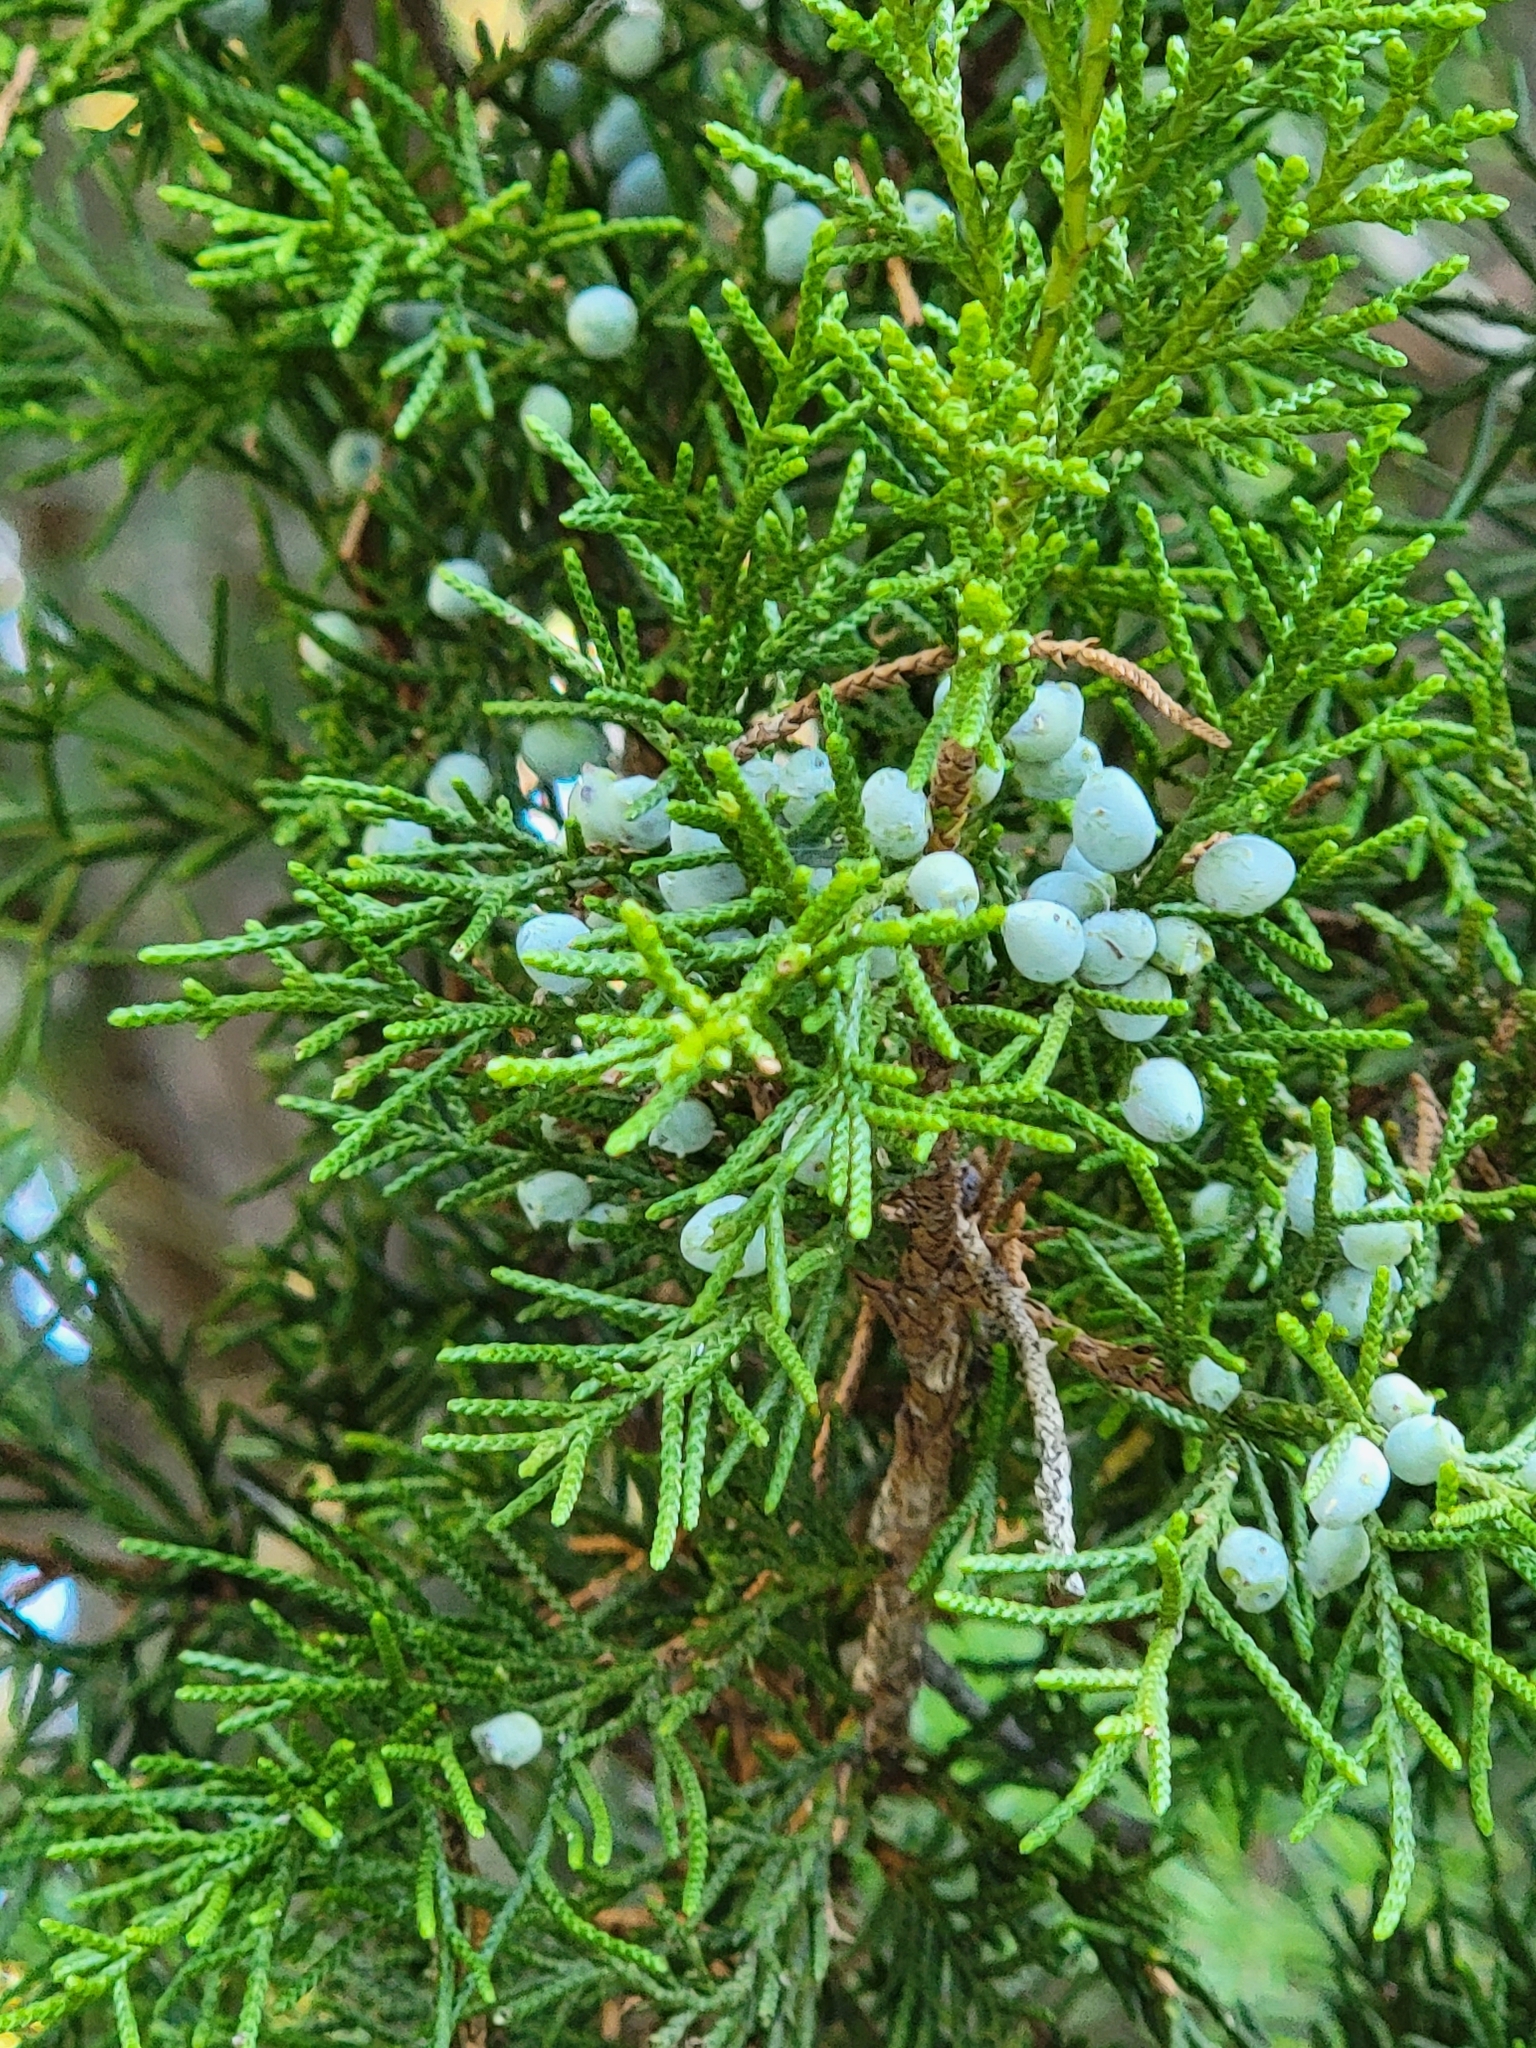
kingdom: Plantae
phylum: Tracheophyta
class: Pinopsida
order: Pinales
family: Cupressaceae
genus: Juniperus
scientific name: Juniperus virginiana
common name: Red juniper
